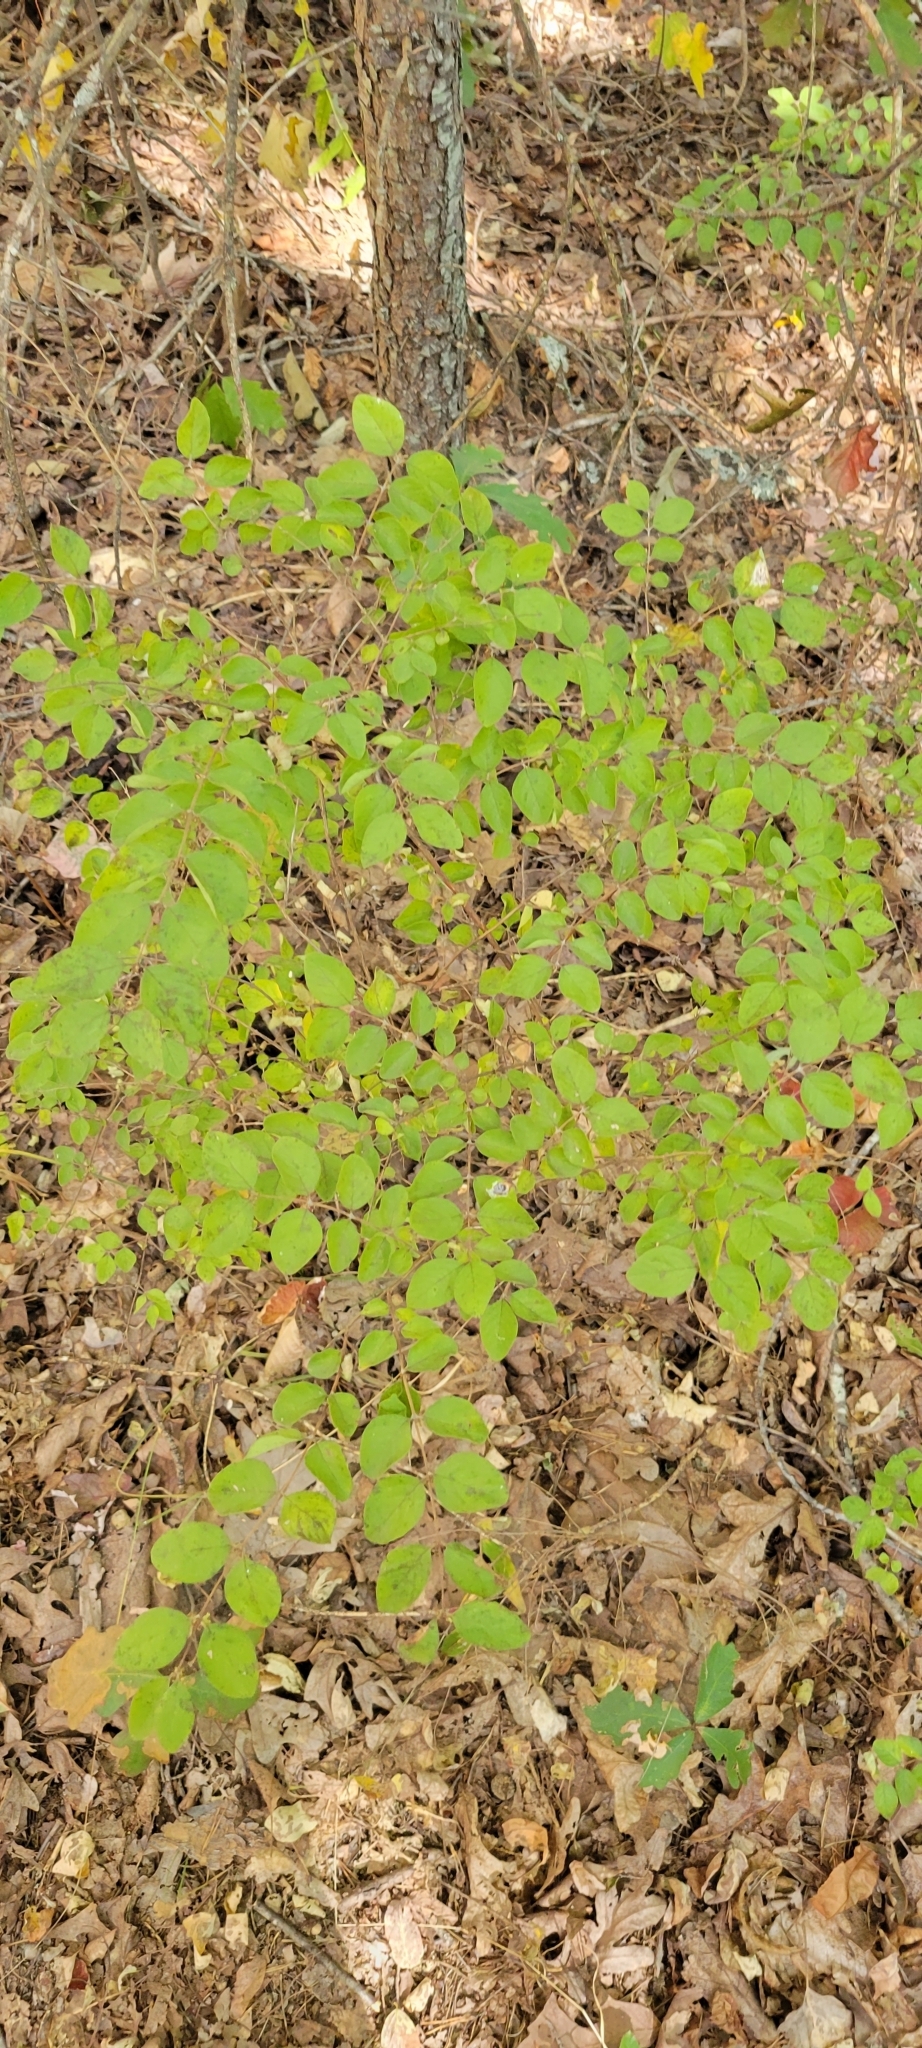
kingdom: Plantae
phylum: Tracheophyta
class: Magnoliopsida
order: Dipsacales
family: Caprifoliaceae
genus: Symphoricarpos
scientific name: Symphoricarpos orbiculatus
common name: Coralberry
